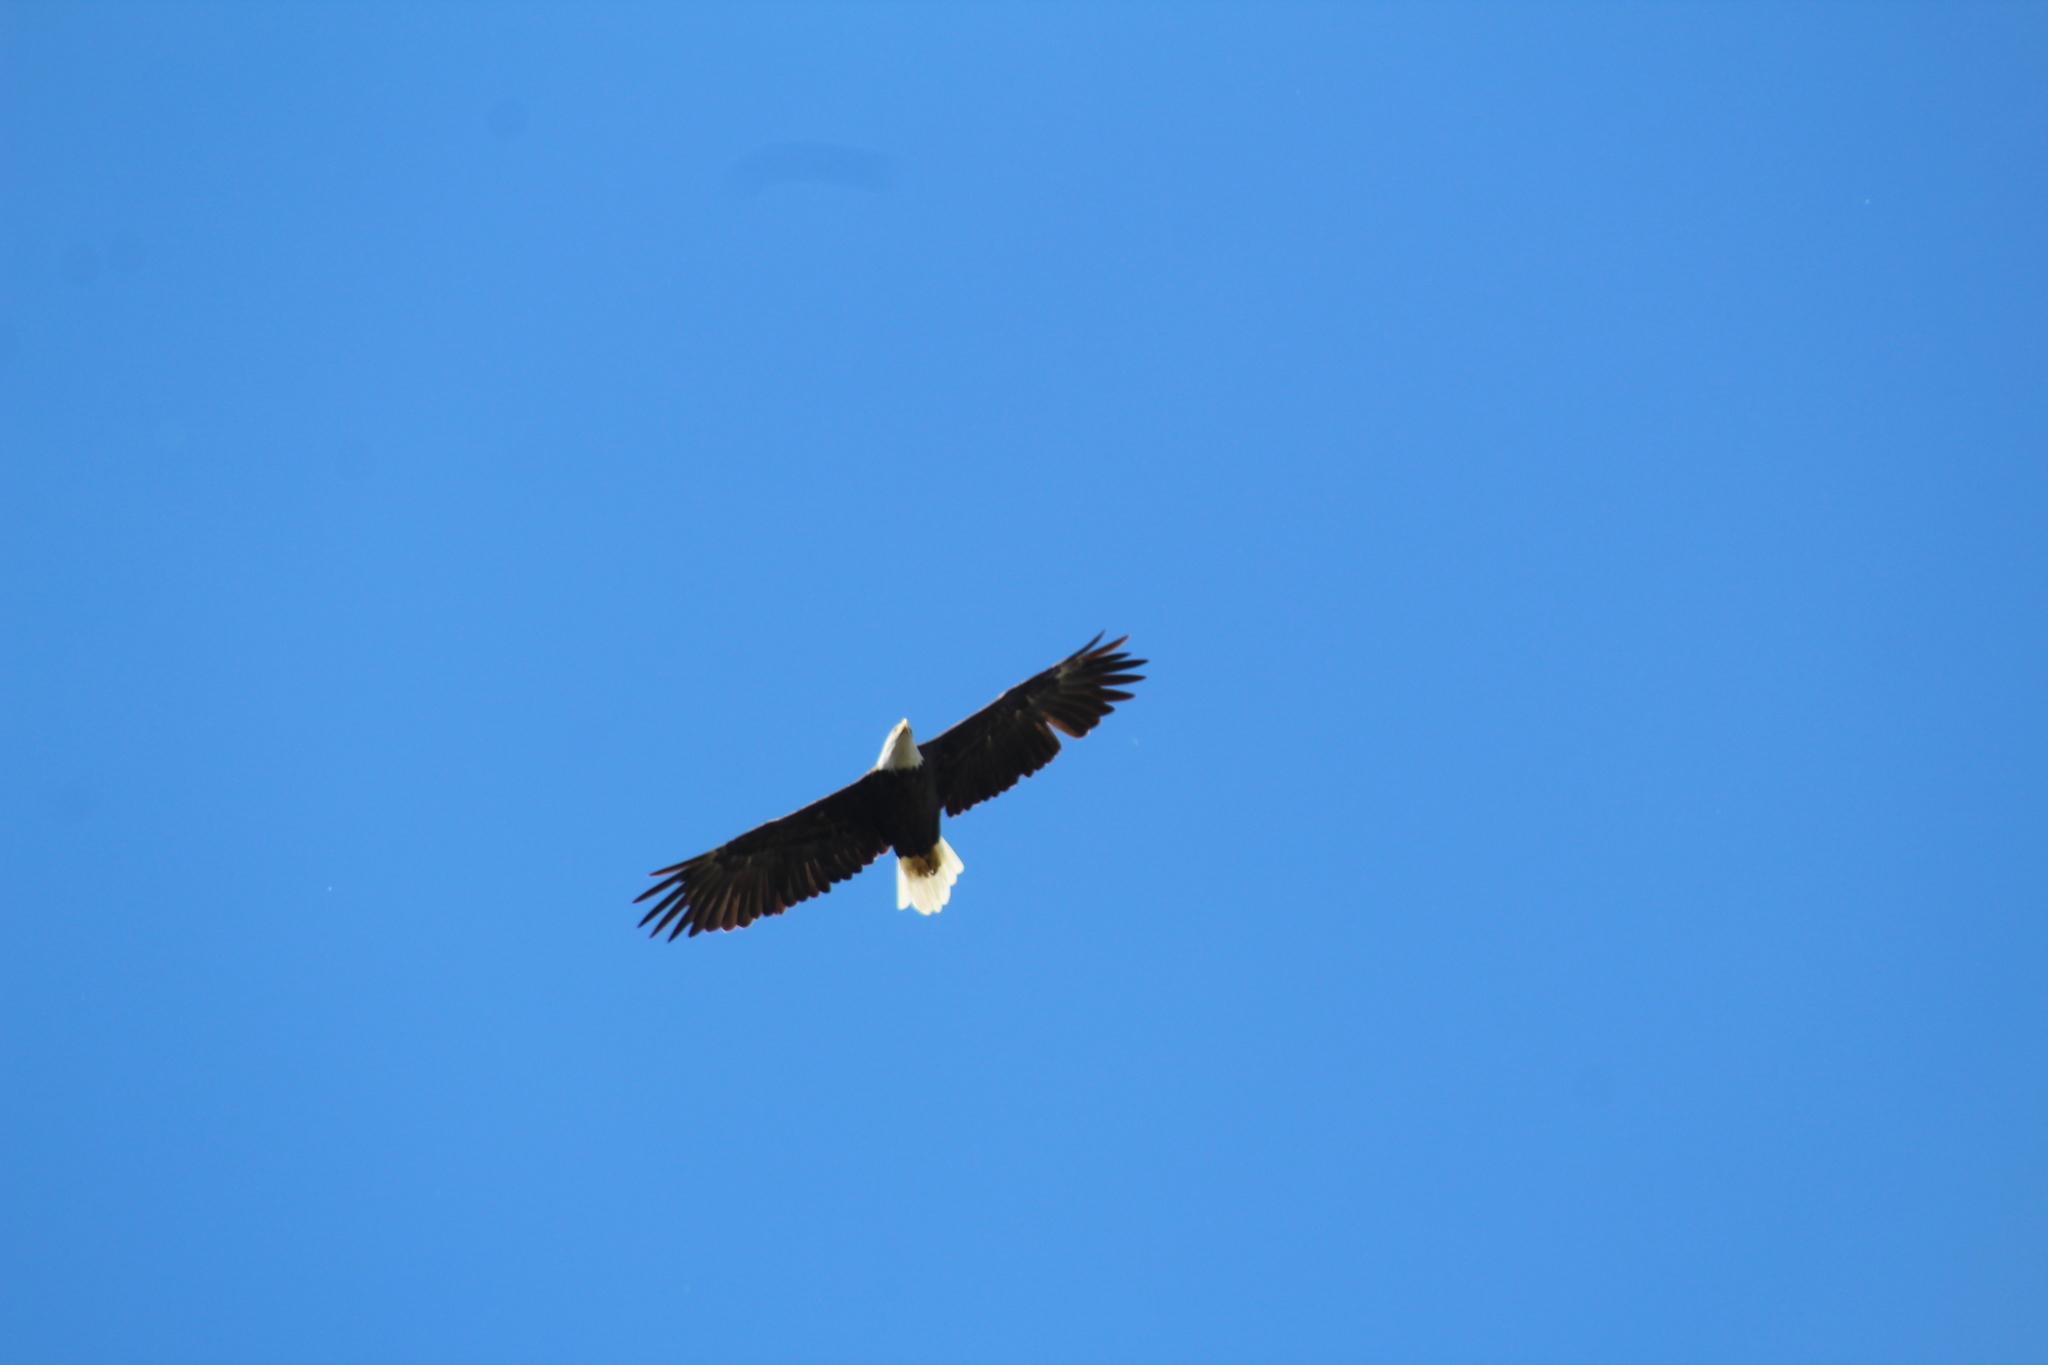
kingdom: Animalia
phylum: Chordata
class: Aves
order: Accipitriformes
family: Accipitridae
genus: Haliaeetus
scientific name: Haliaeetus leucocephalus
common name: Bald eagle
